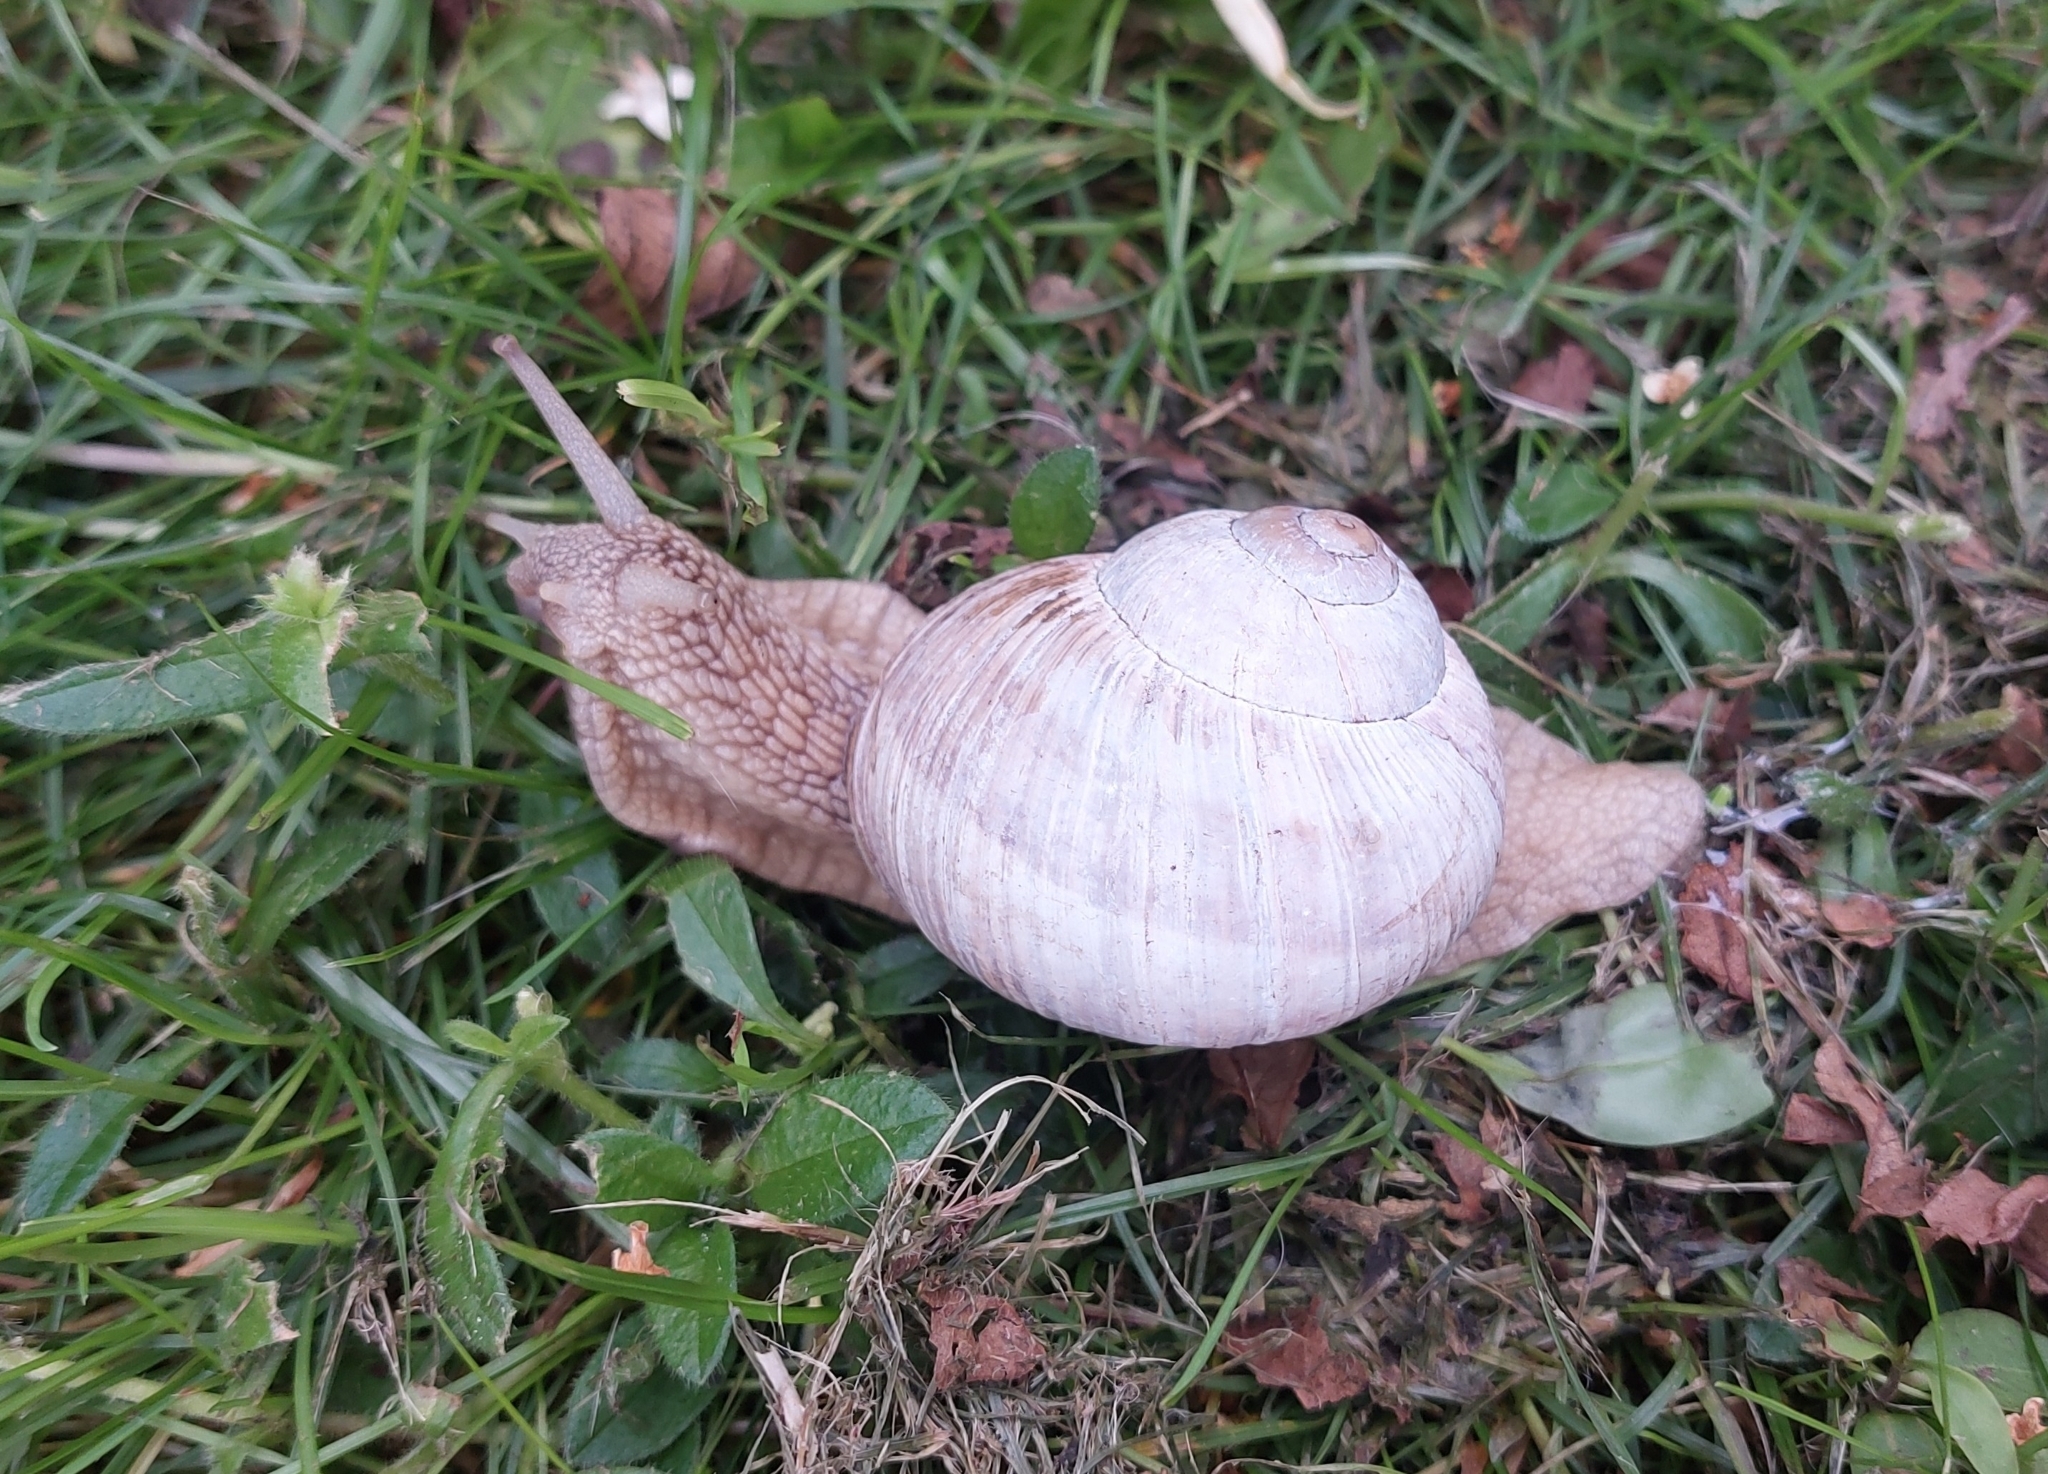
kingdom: Animalia
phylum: Mollusca
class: Gastropoda
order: Stylommatophora
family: Helicidae
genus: Helix
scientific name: Helix pomatia
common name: Roman snail
